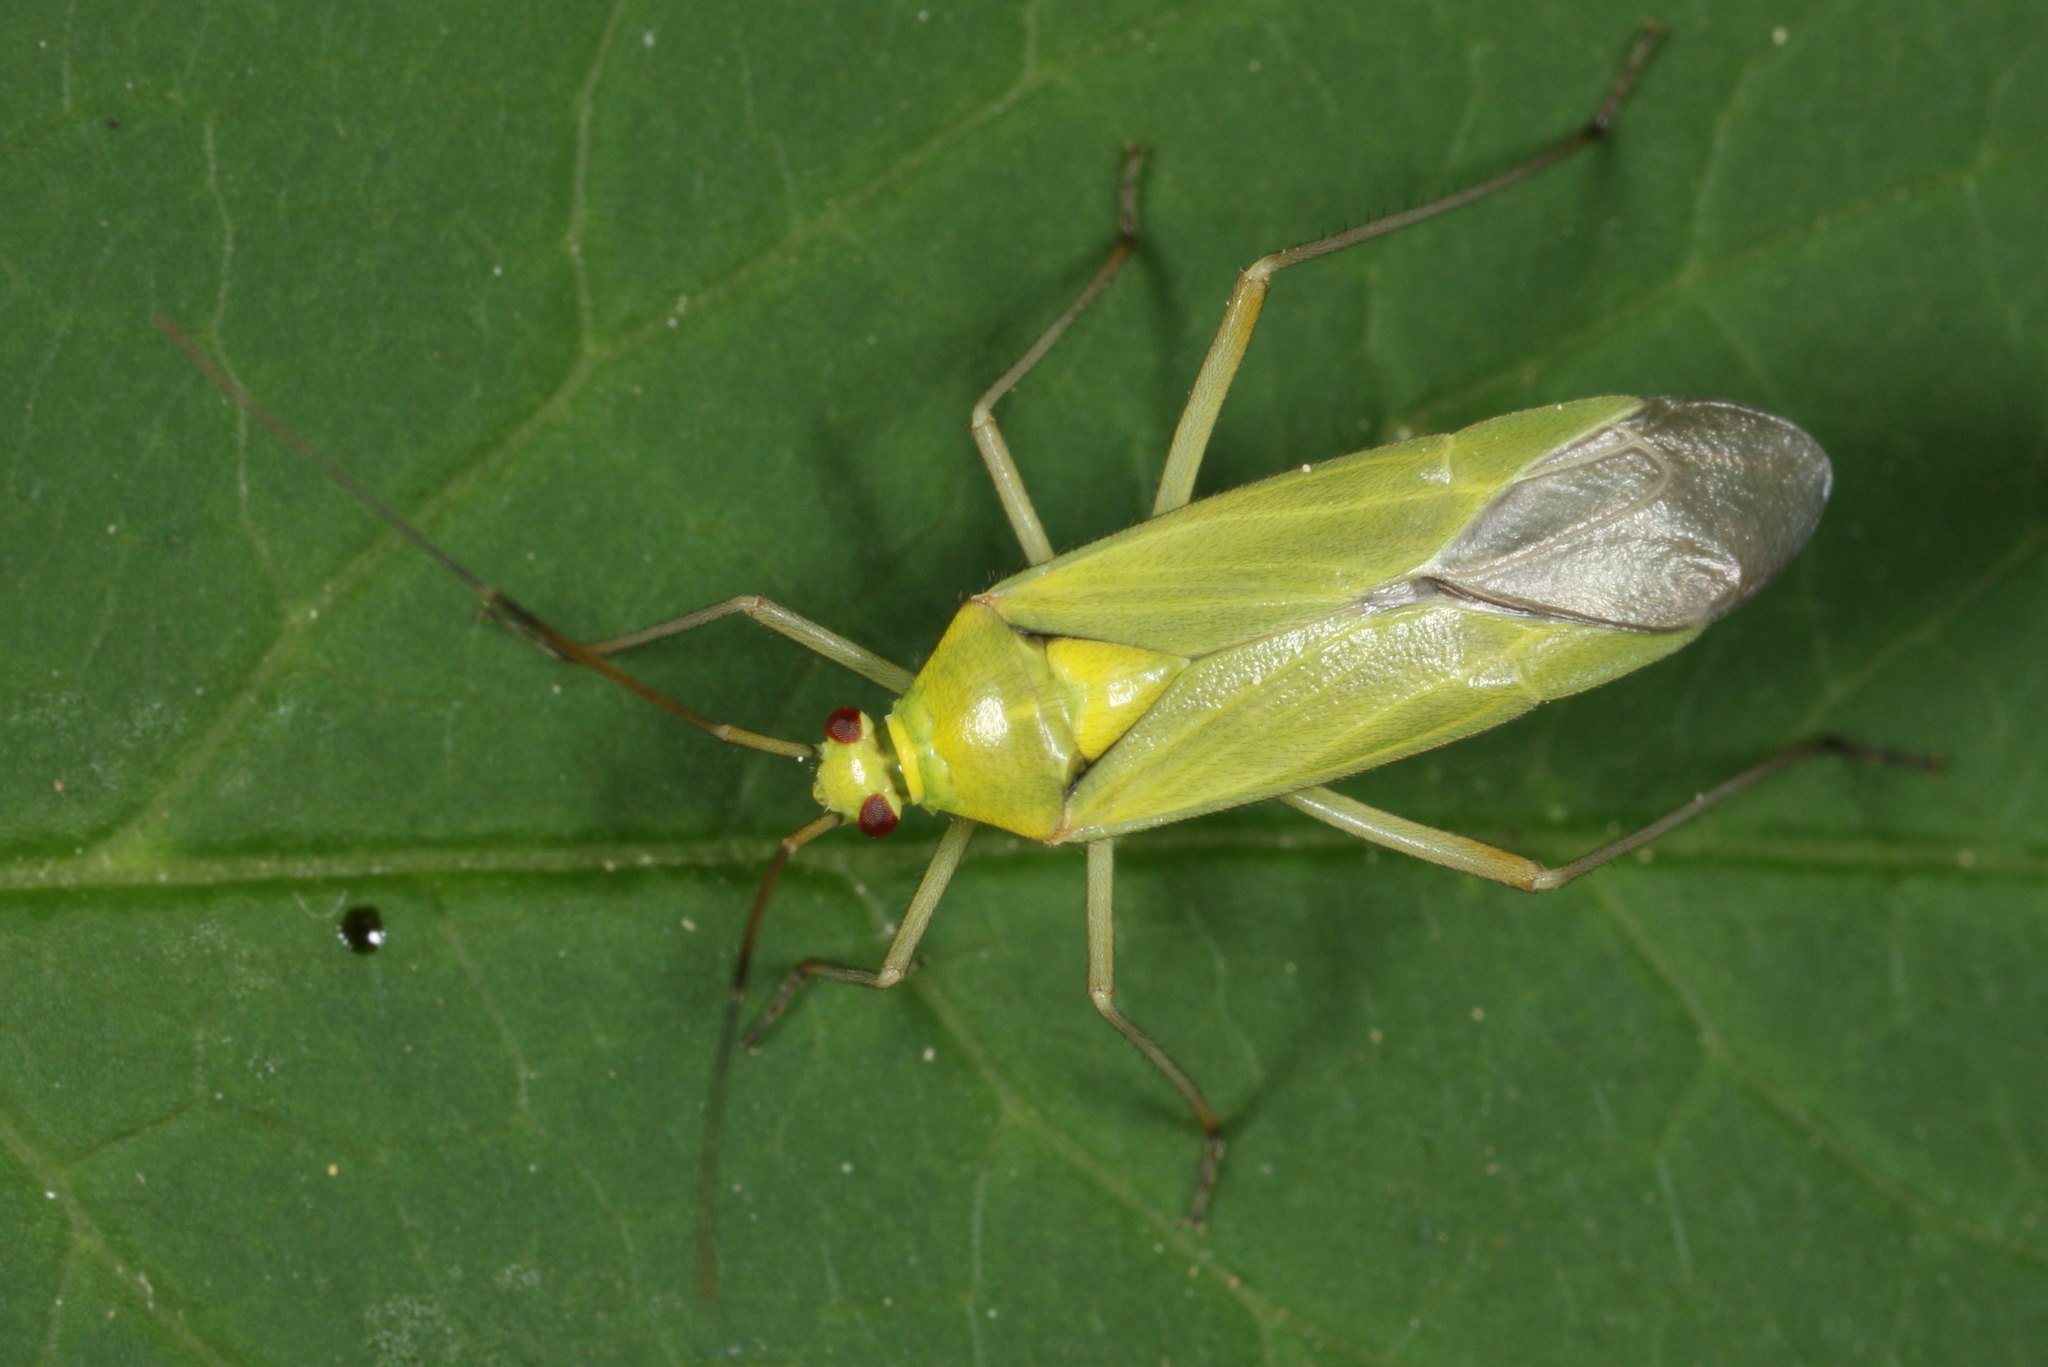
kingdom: Animalia
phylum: Arthropoda
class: Insecta
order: Hemiptera
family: Miridae
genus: Calocoris
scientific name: Calocoris alpestris
